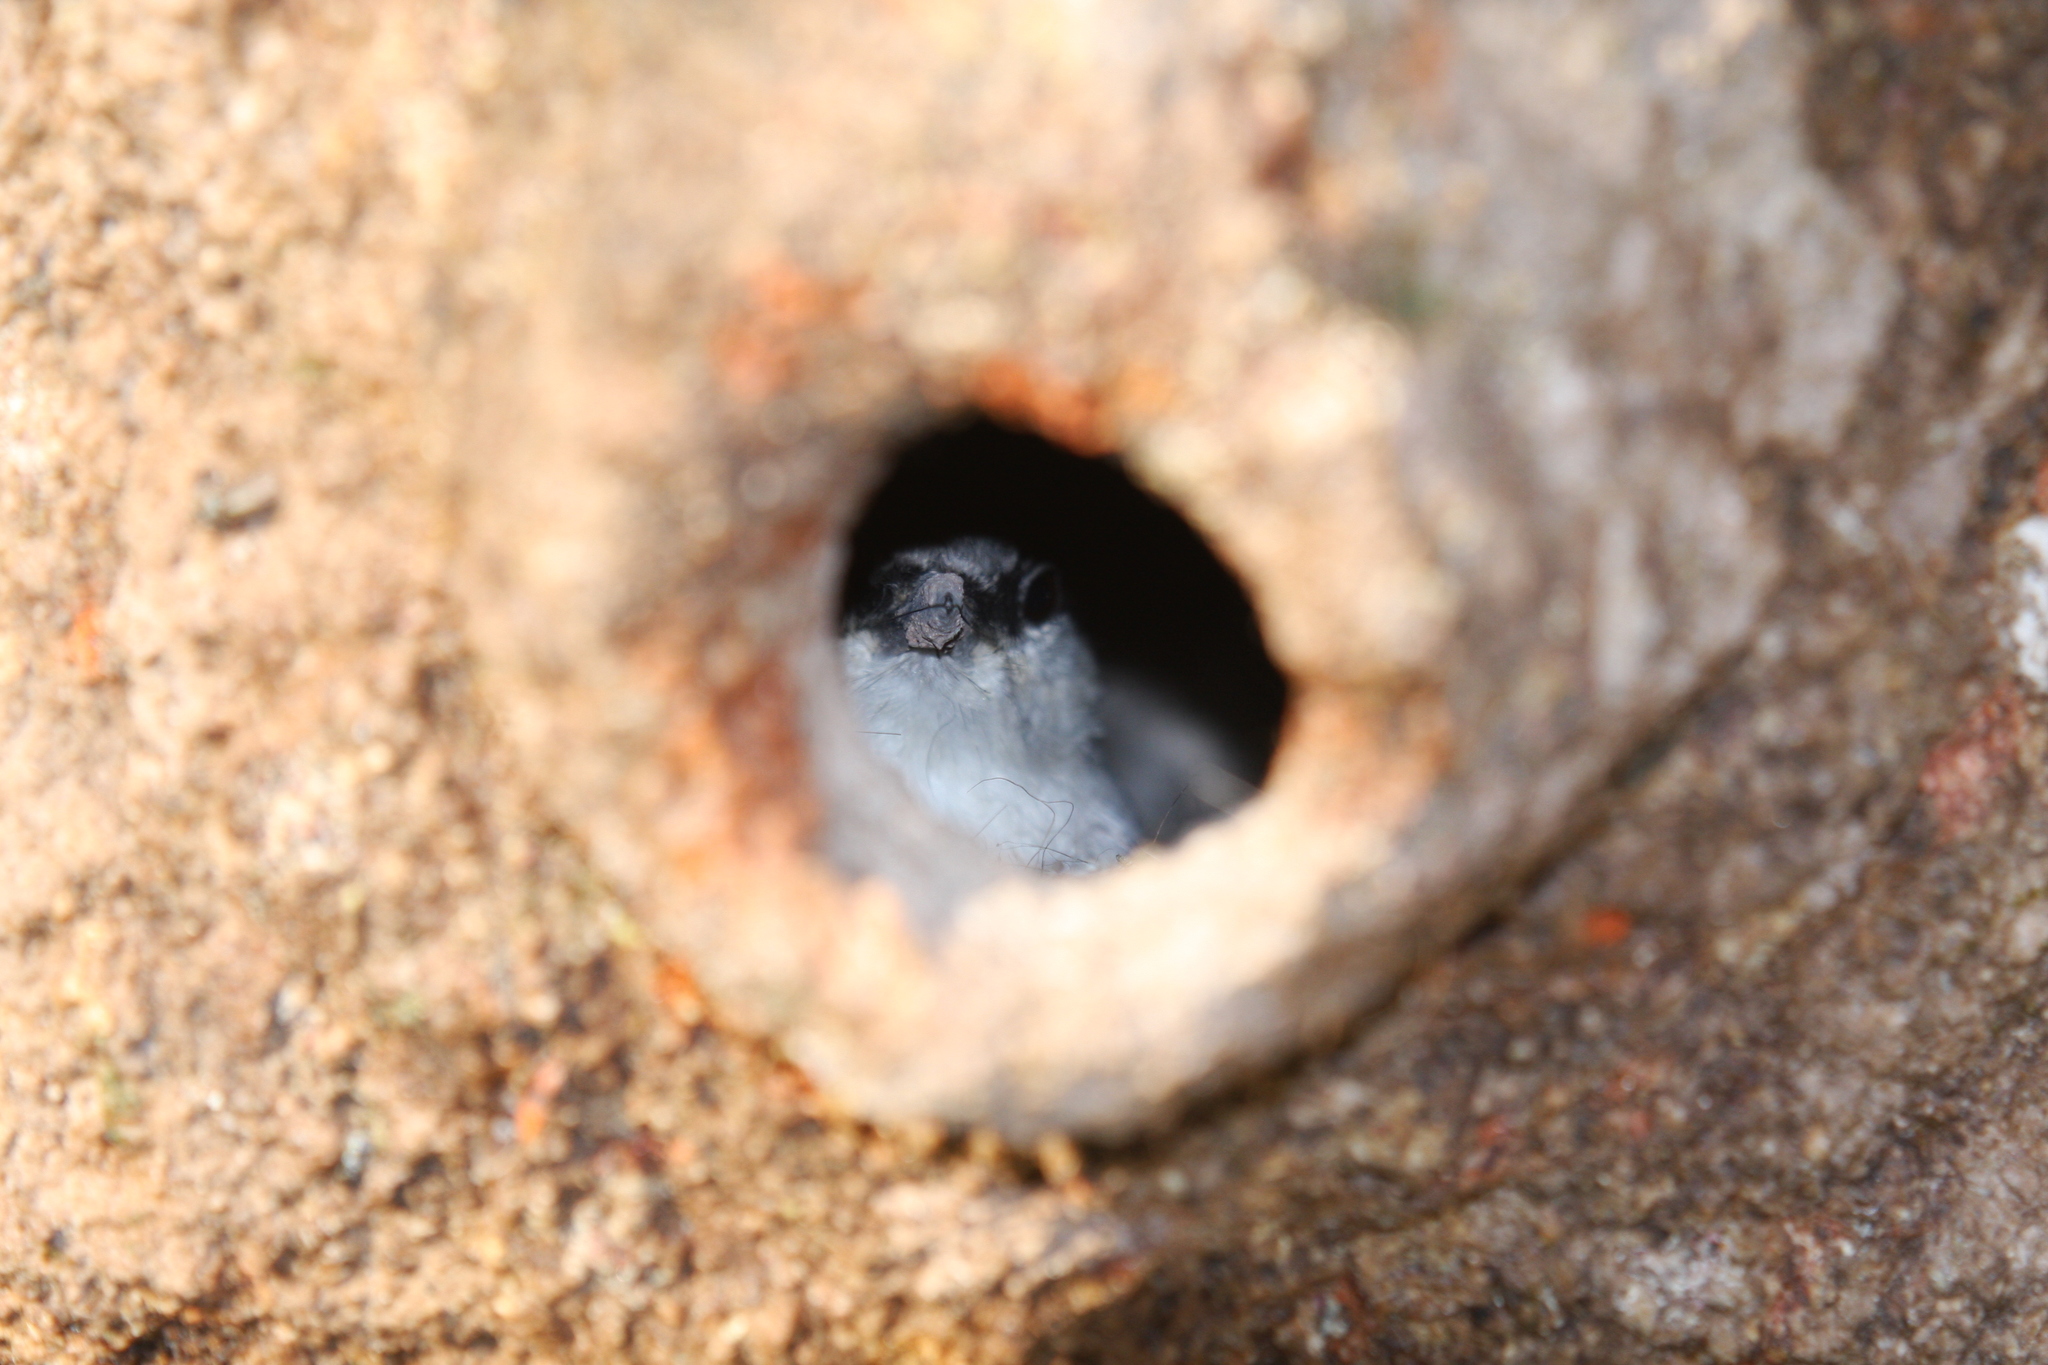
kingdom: Animalia
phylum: Chordata
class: Aves
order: Passeriformes
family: Sittidae
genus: Sitta
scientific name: Sitta neumayer
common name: Western rock nuthatch
